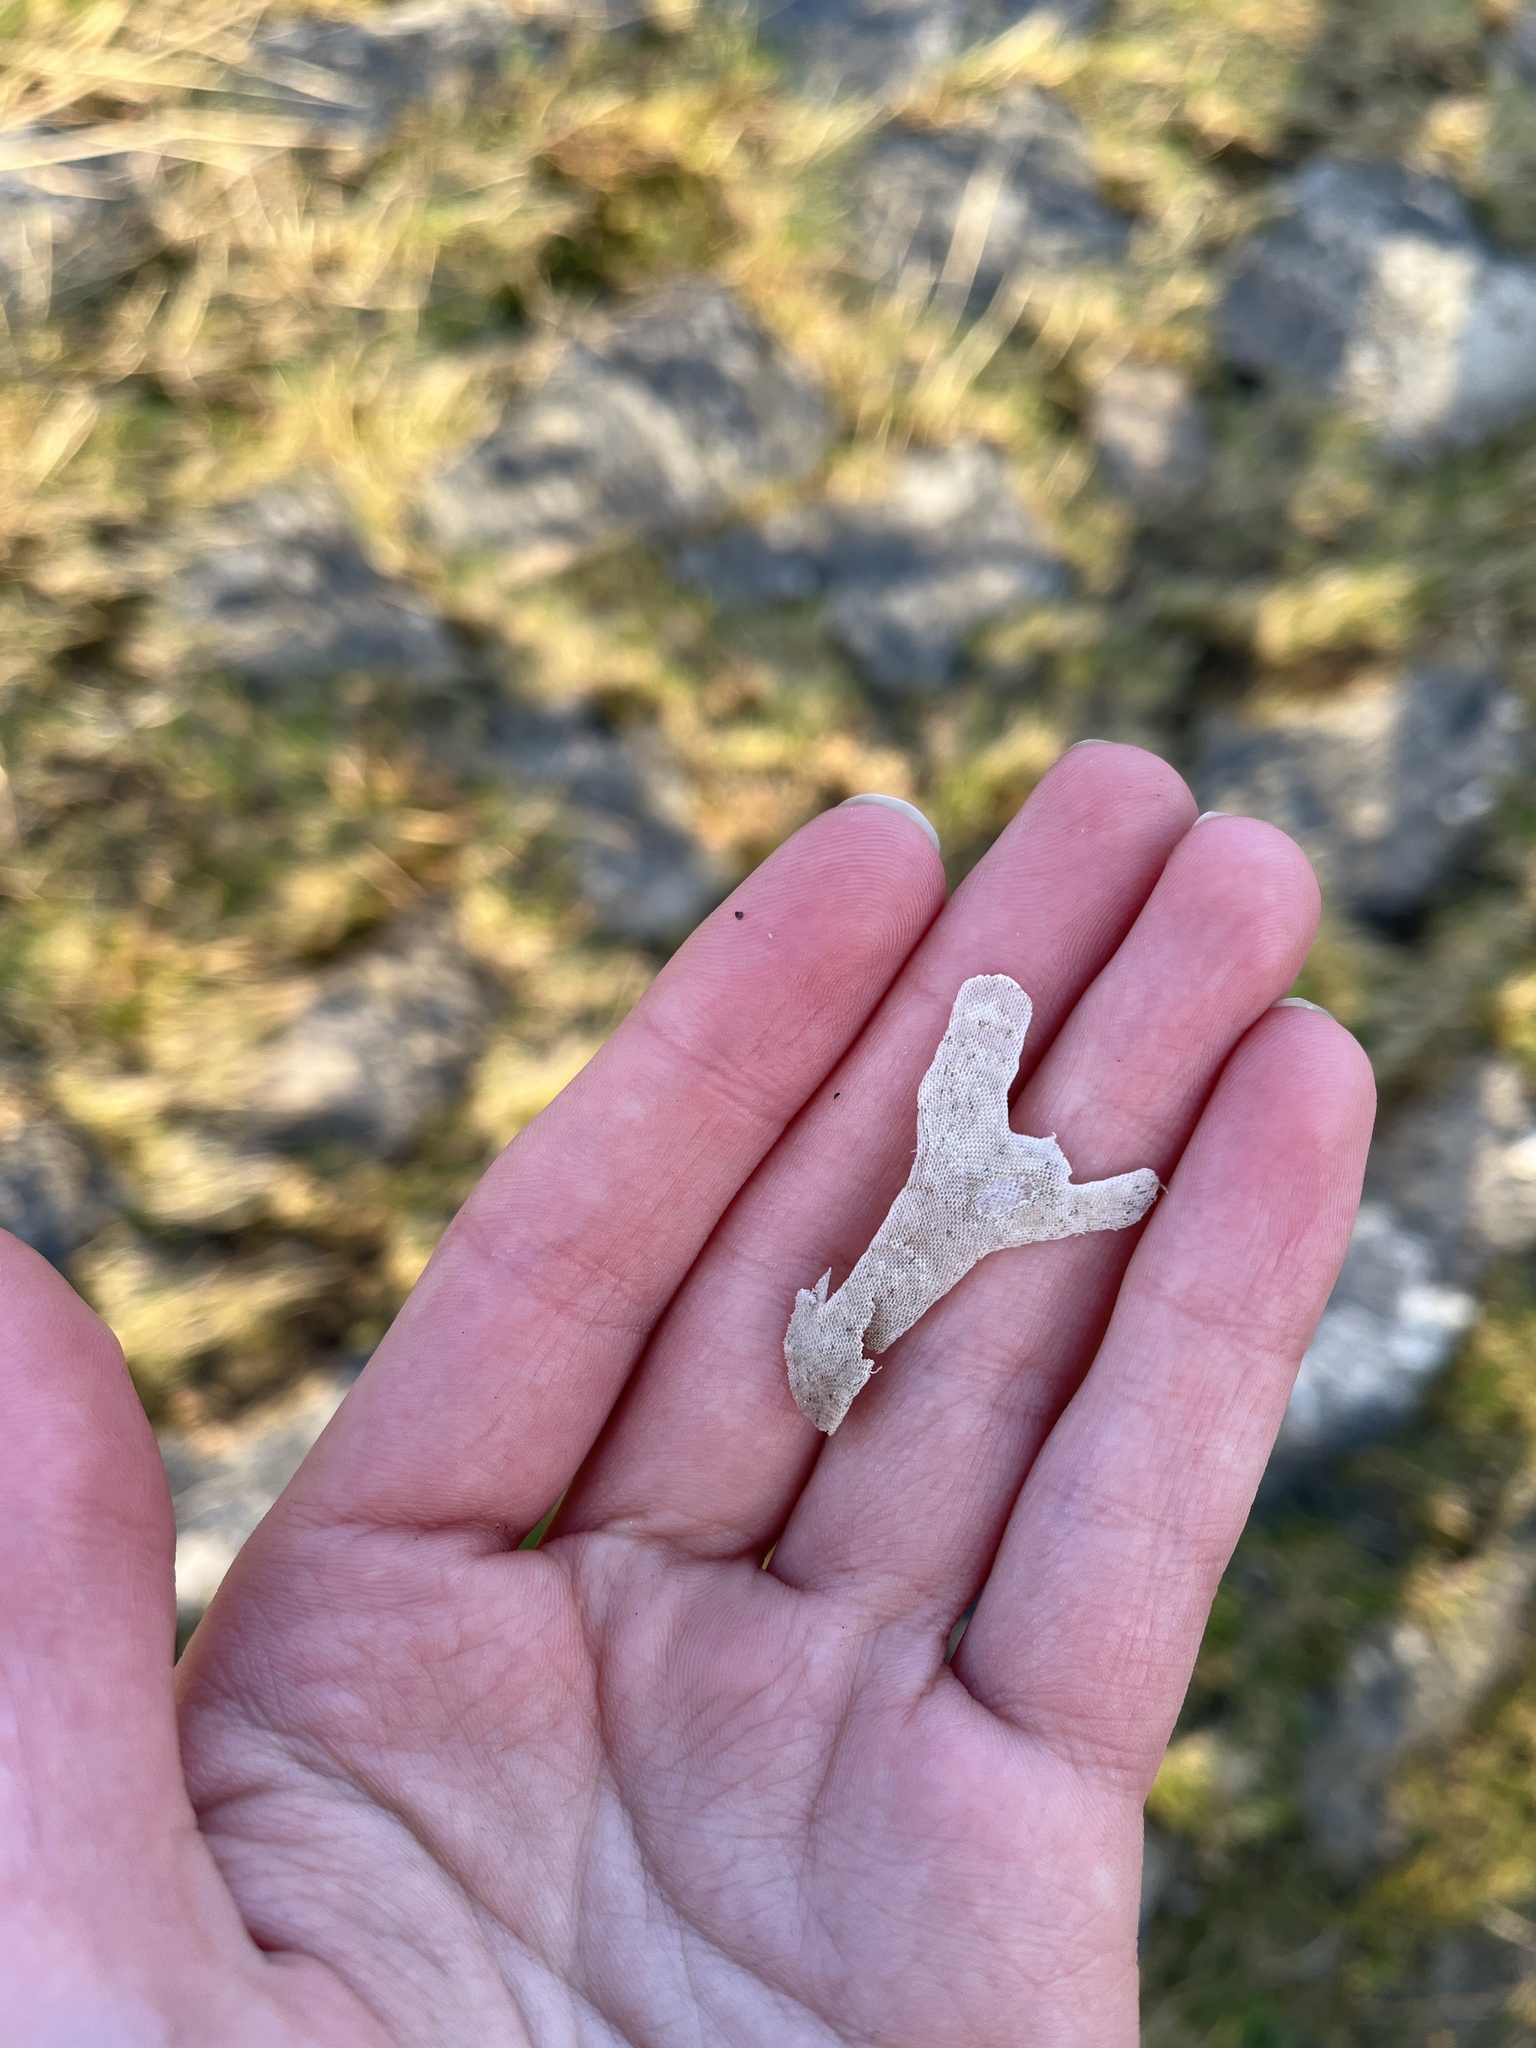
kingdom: Animalia
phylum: Bryozoa
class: Gymnolaemata
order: Cheilostomatida
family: Flustridae
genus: Flustra
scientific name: Flustra foliacea
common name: Hornwrack
